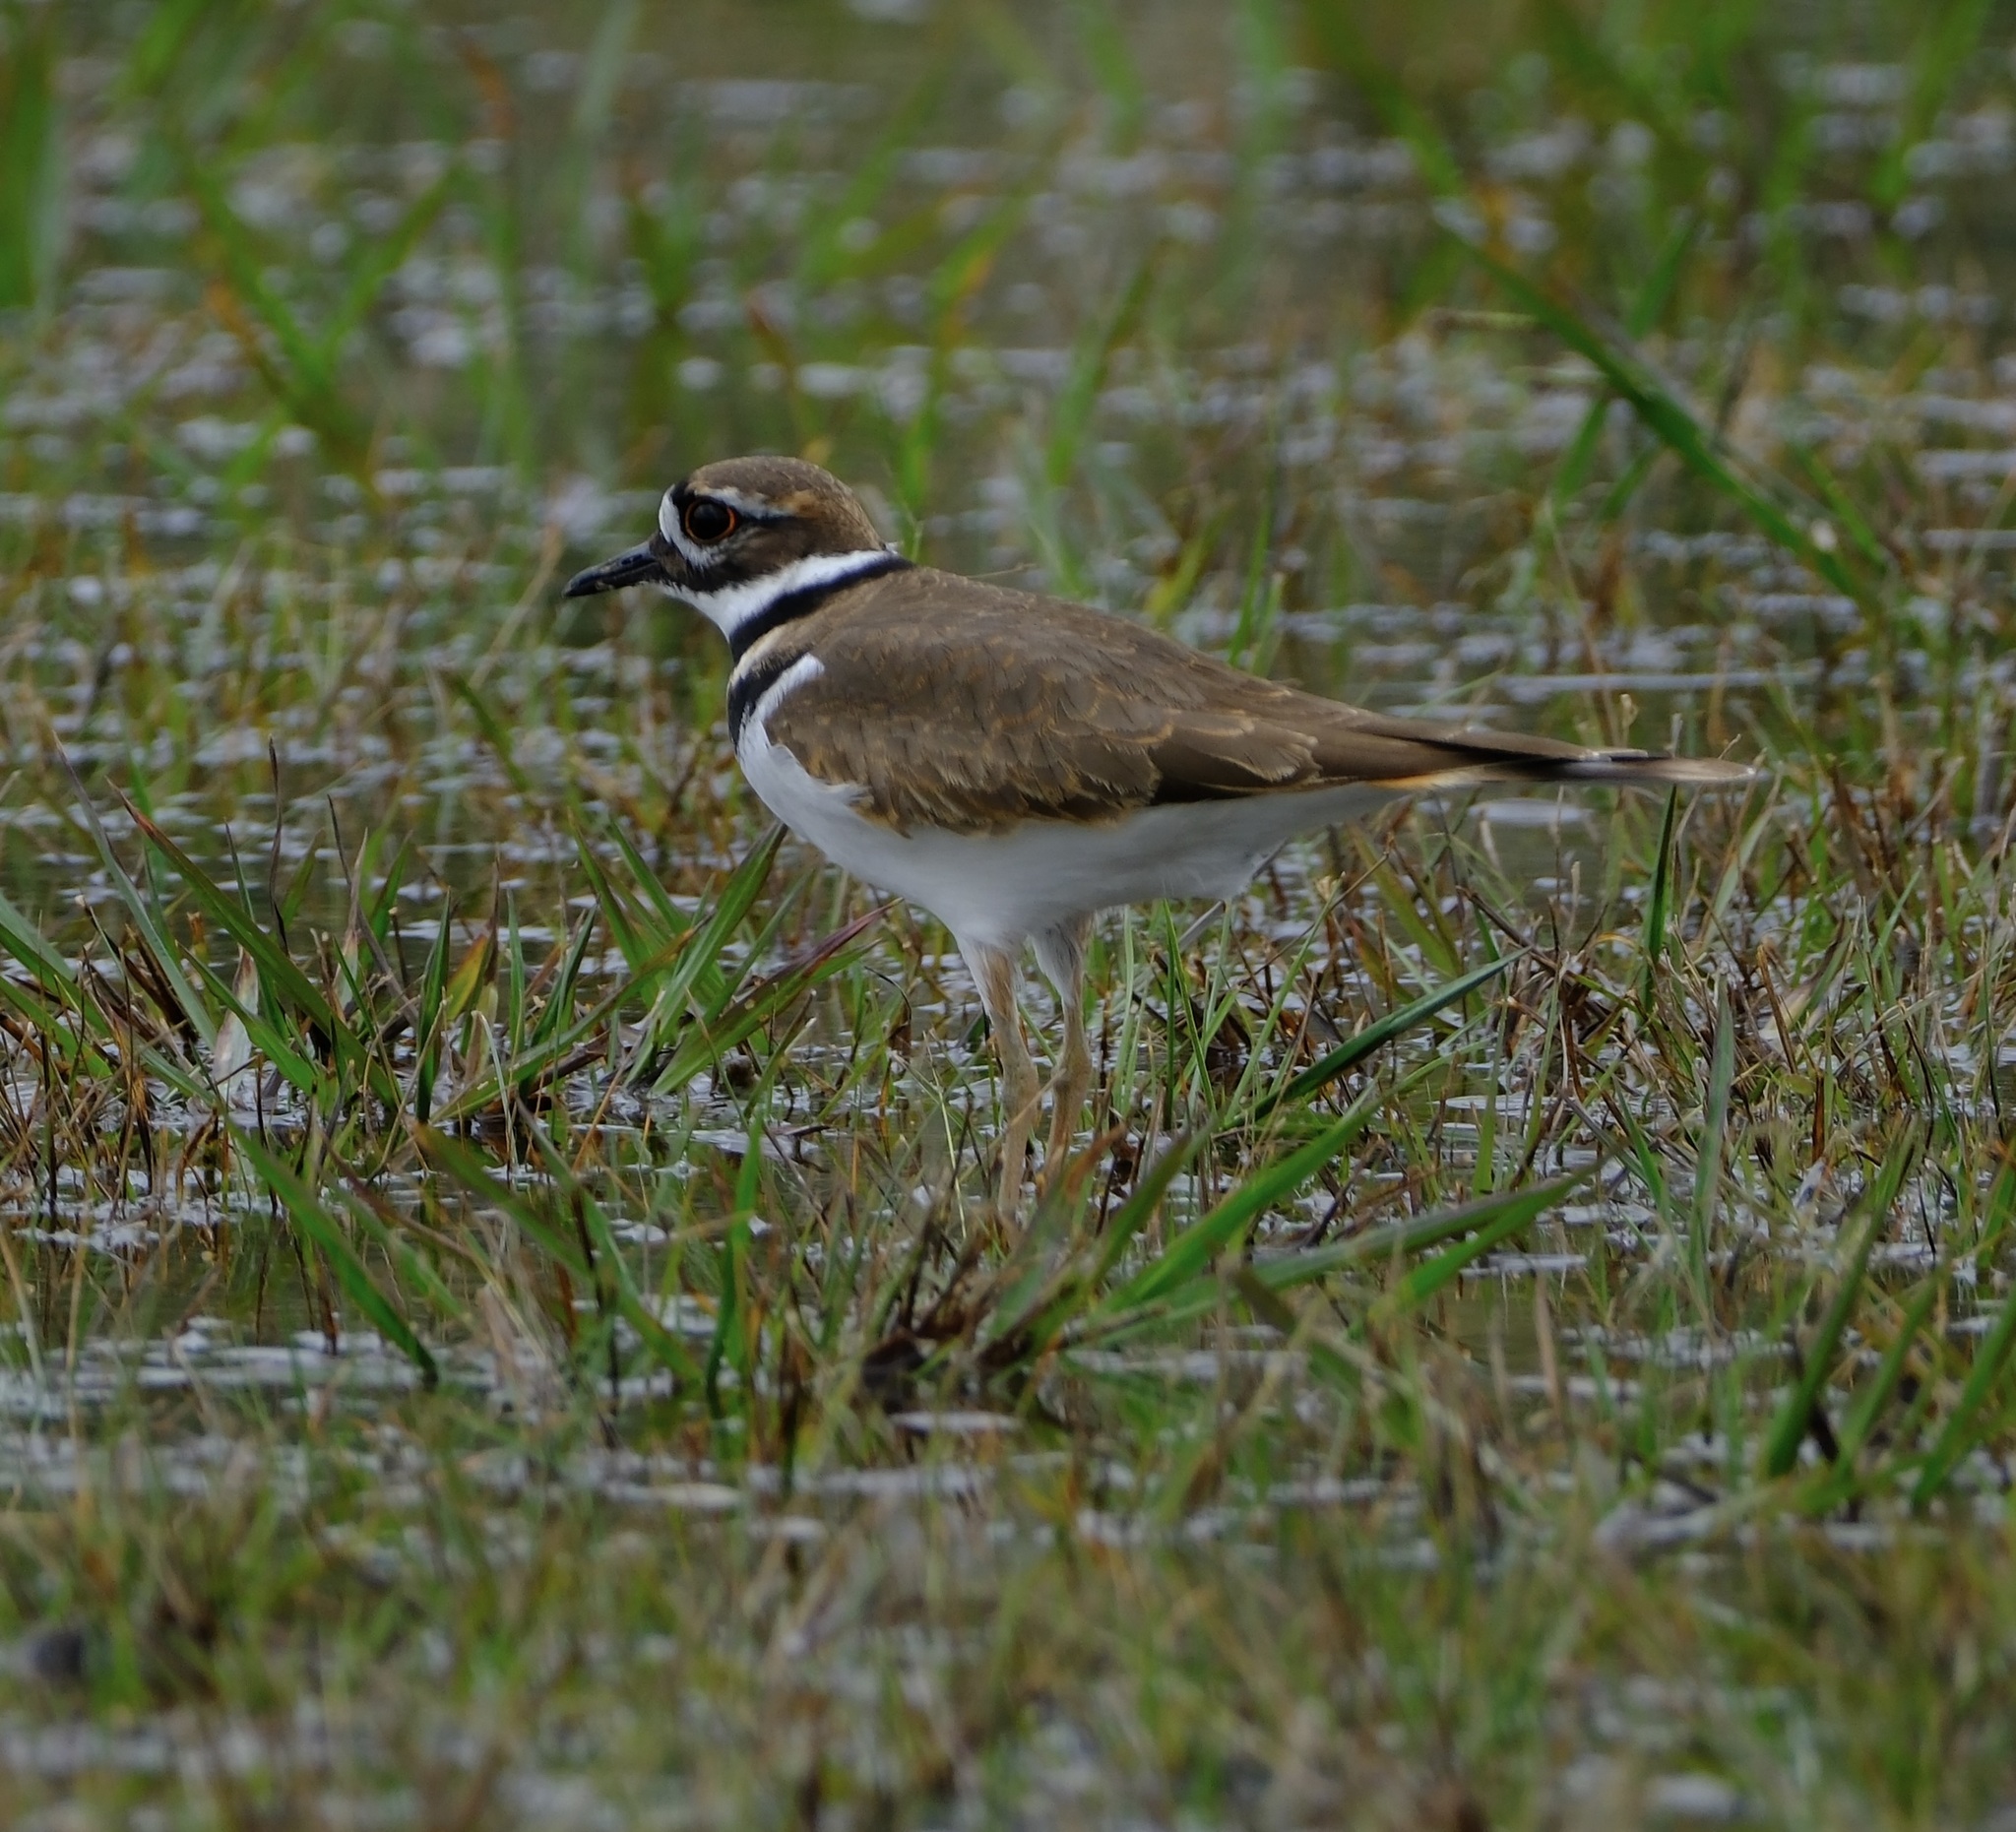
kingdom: Animalia
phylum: Chordata
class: Aves
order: Charadriiformes
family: Charadriidae
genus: Charadrius
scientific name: Charadrius vociferus
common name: Killdeer
